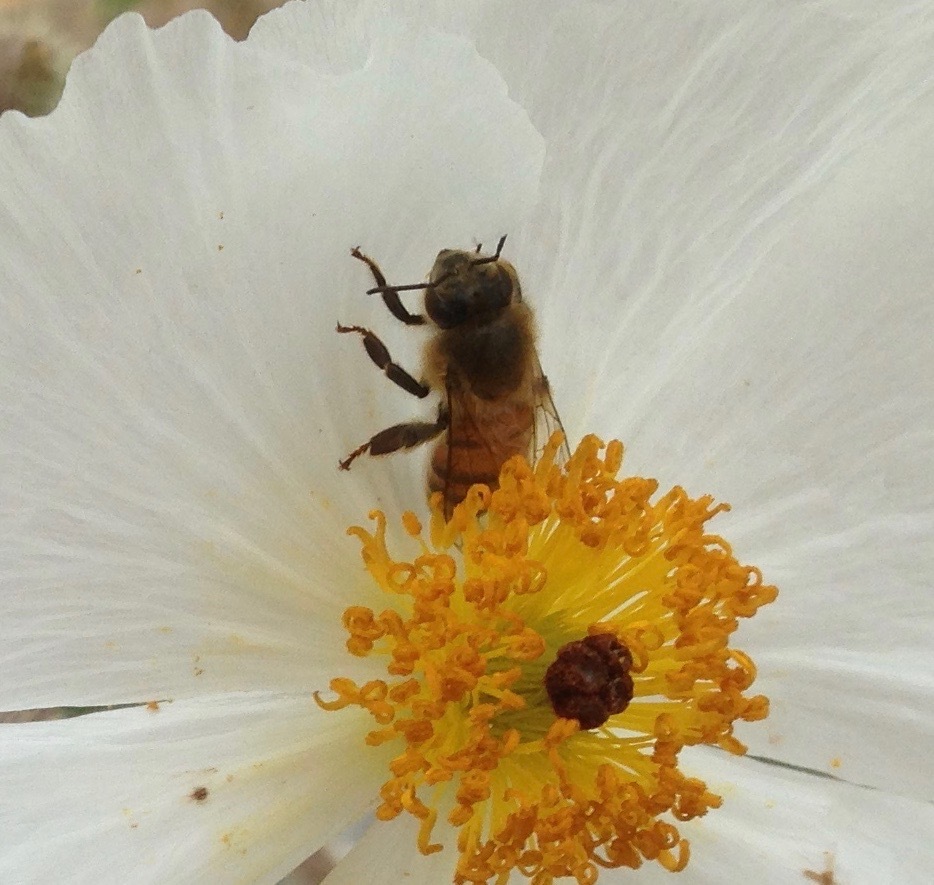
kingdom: Animalia
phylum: Arthropoda
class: Insecta
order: Hymenoptera
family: Apidae
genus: Apis
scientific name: Apis mellifera
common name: Honey bee
